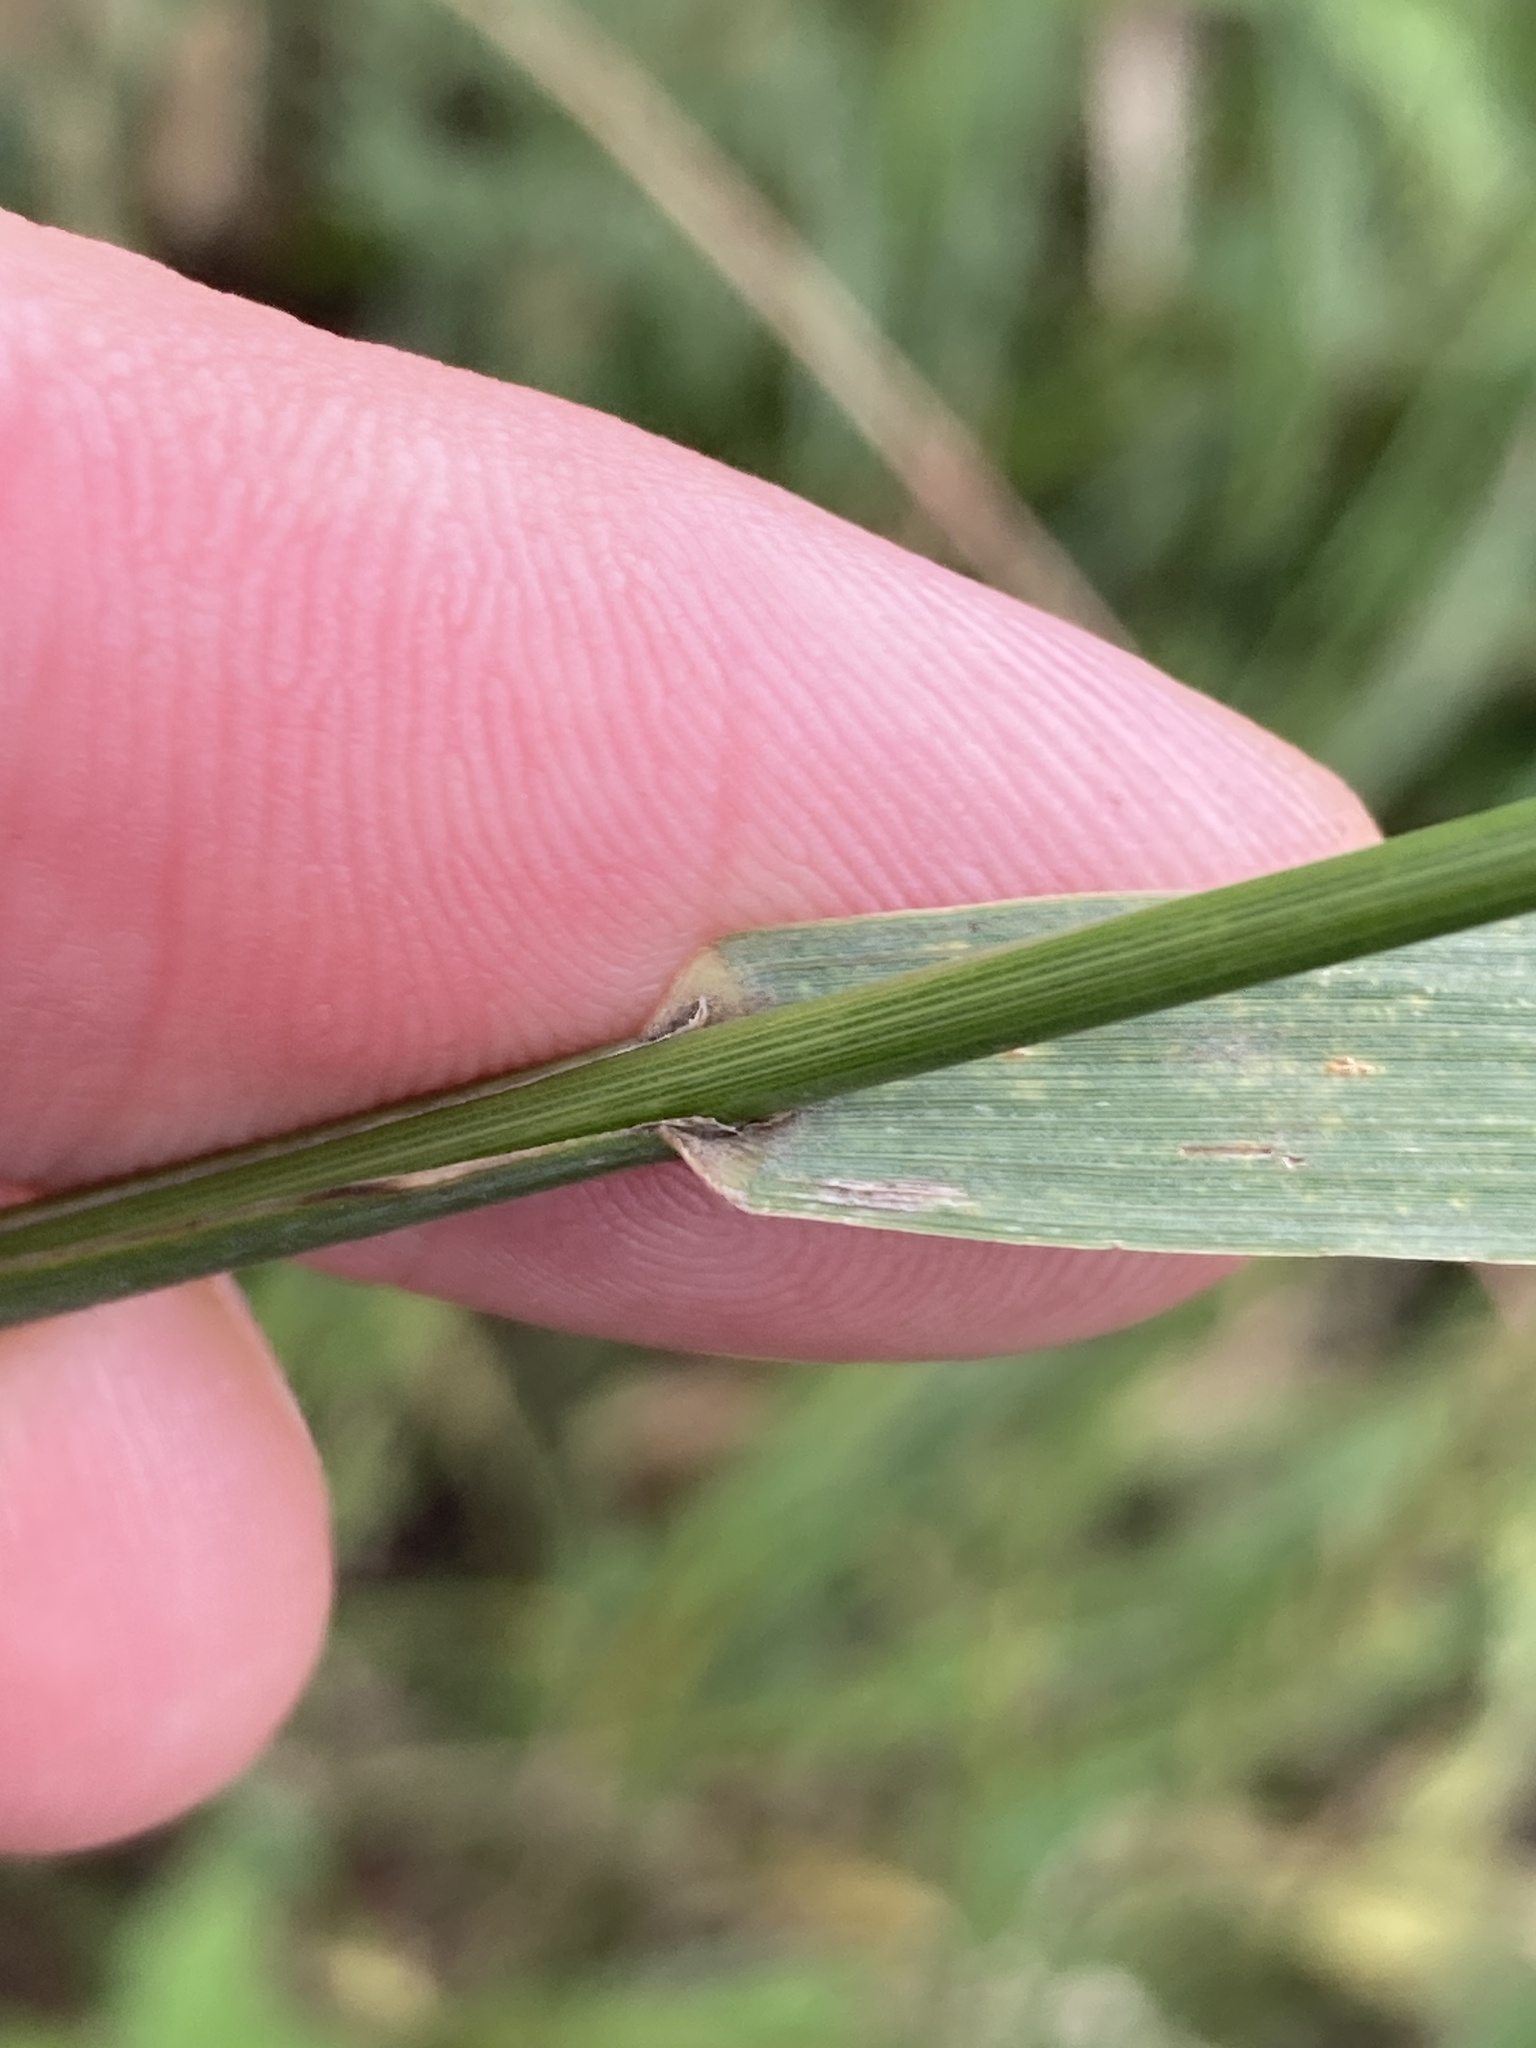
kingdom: Plantae
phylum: Tracheophyta
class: Liliopsida
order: Poales
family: Poaceae
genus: Bromus
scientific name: Bromus inermis
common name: Smooth brome
